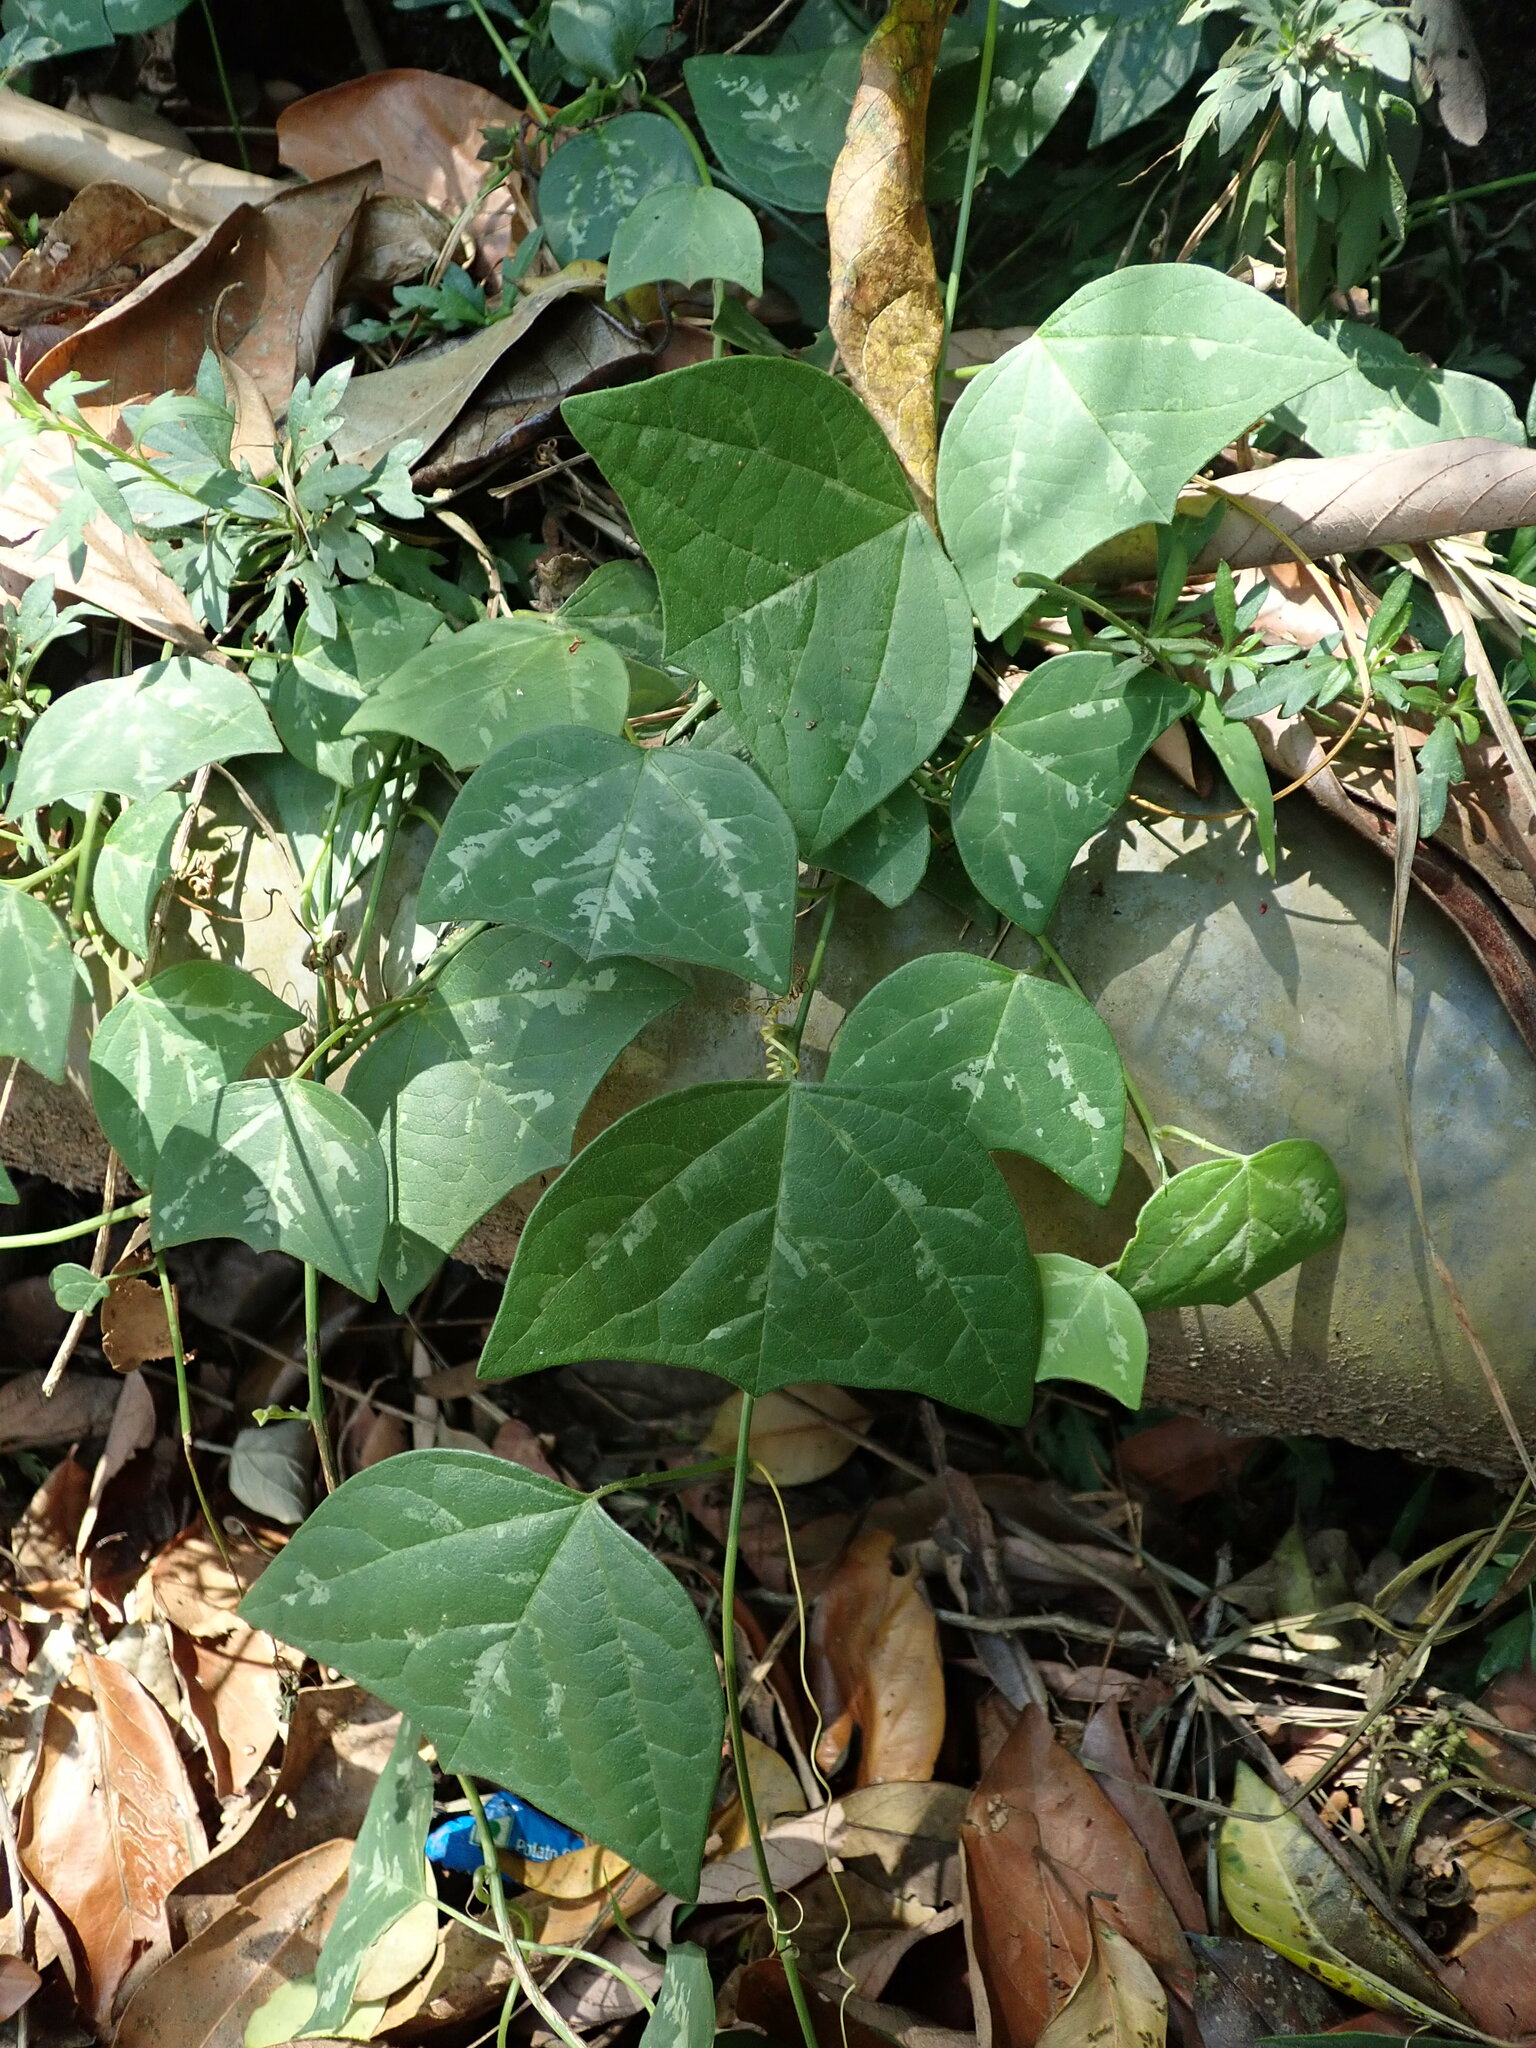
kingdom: Plantae
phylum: Tracheophyta
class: Magnoliopsida
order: Malpighiales
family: Passifloraceae
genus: Passiflora
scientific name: Passiflora leschenaultii
